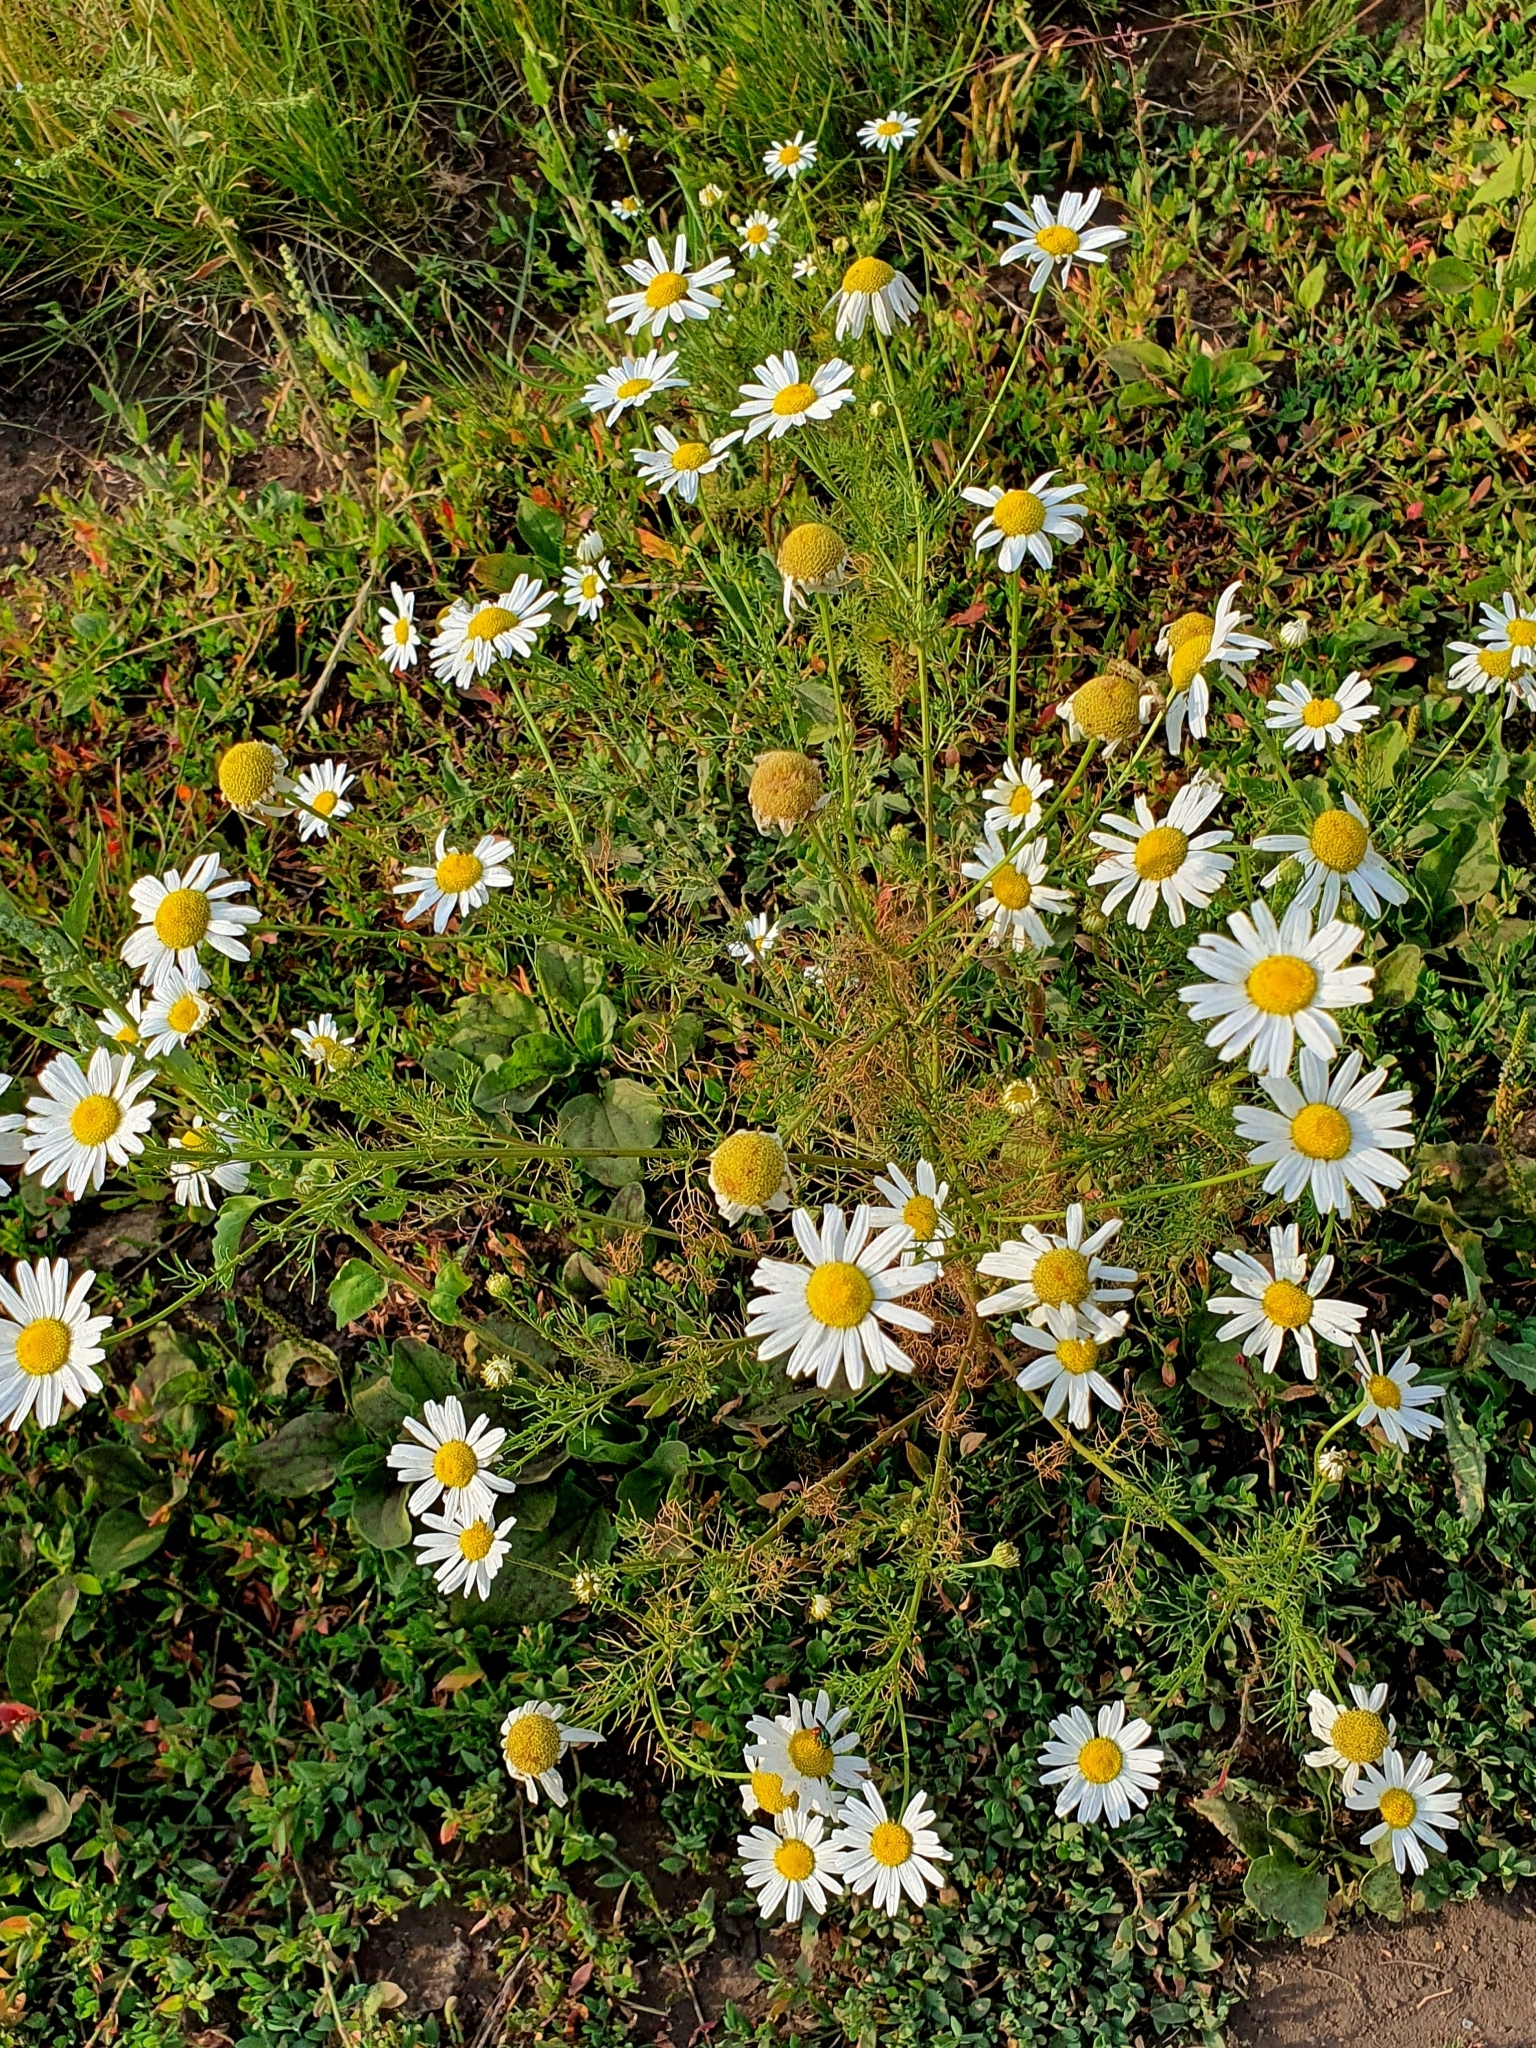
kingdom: Plantae
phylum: Tracheophyta
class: Magnoliopsida
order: Asterales
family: Asteraceae
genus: Tripleurospermum
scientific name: Tripleurospermum inodorum
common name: Scentless mayweed
